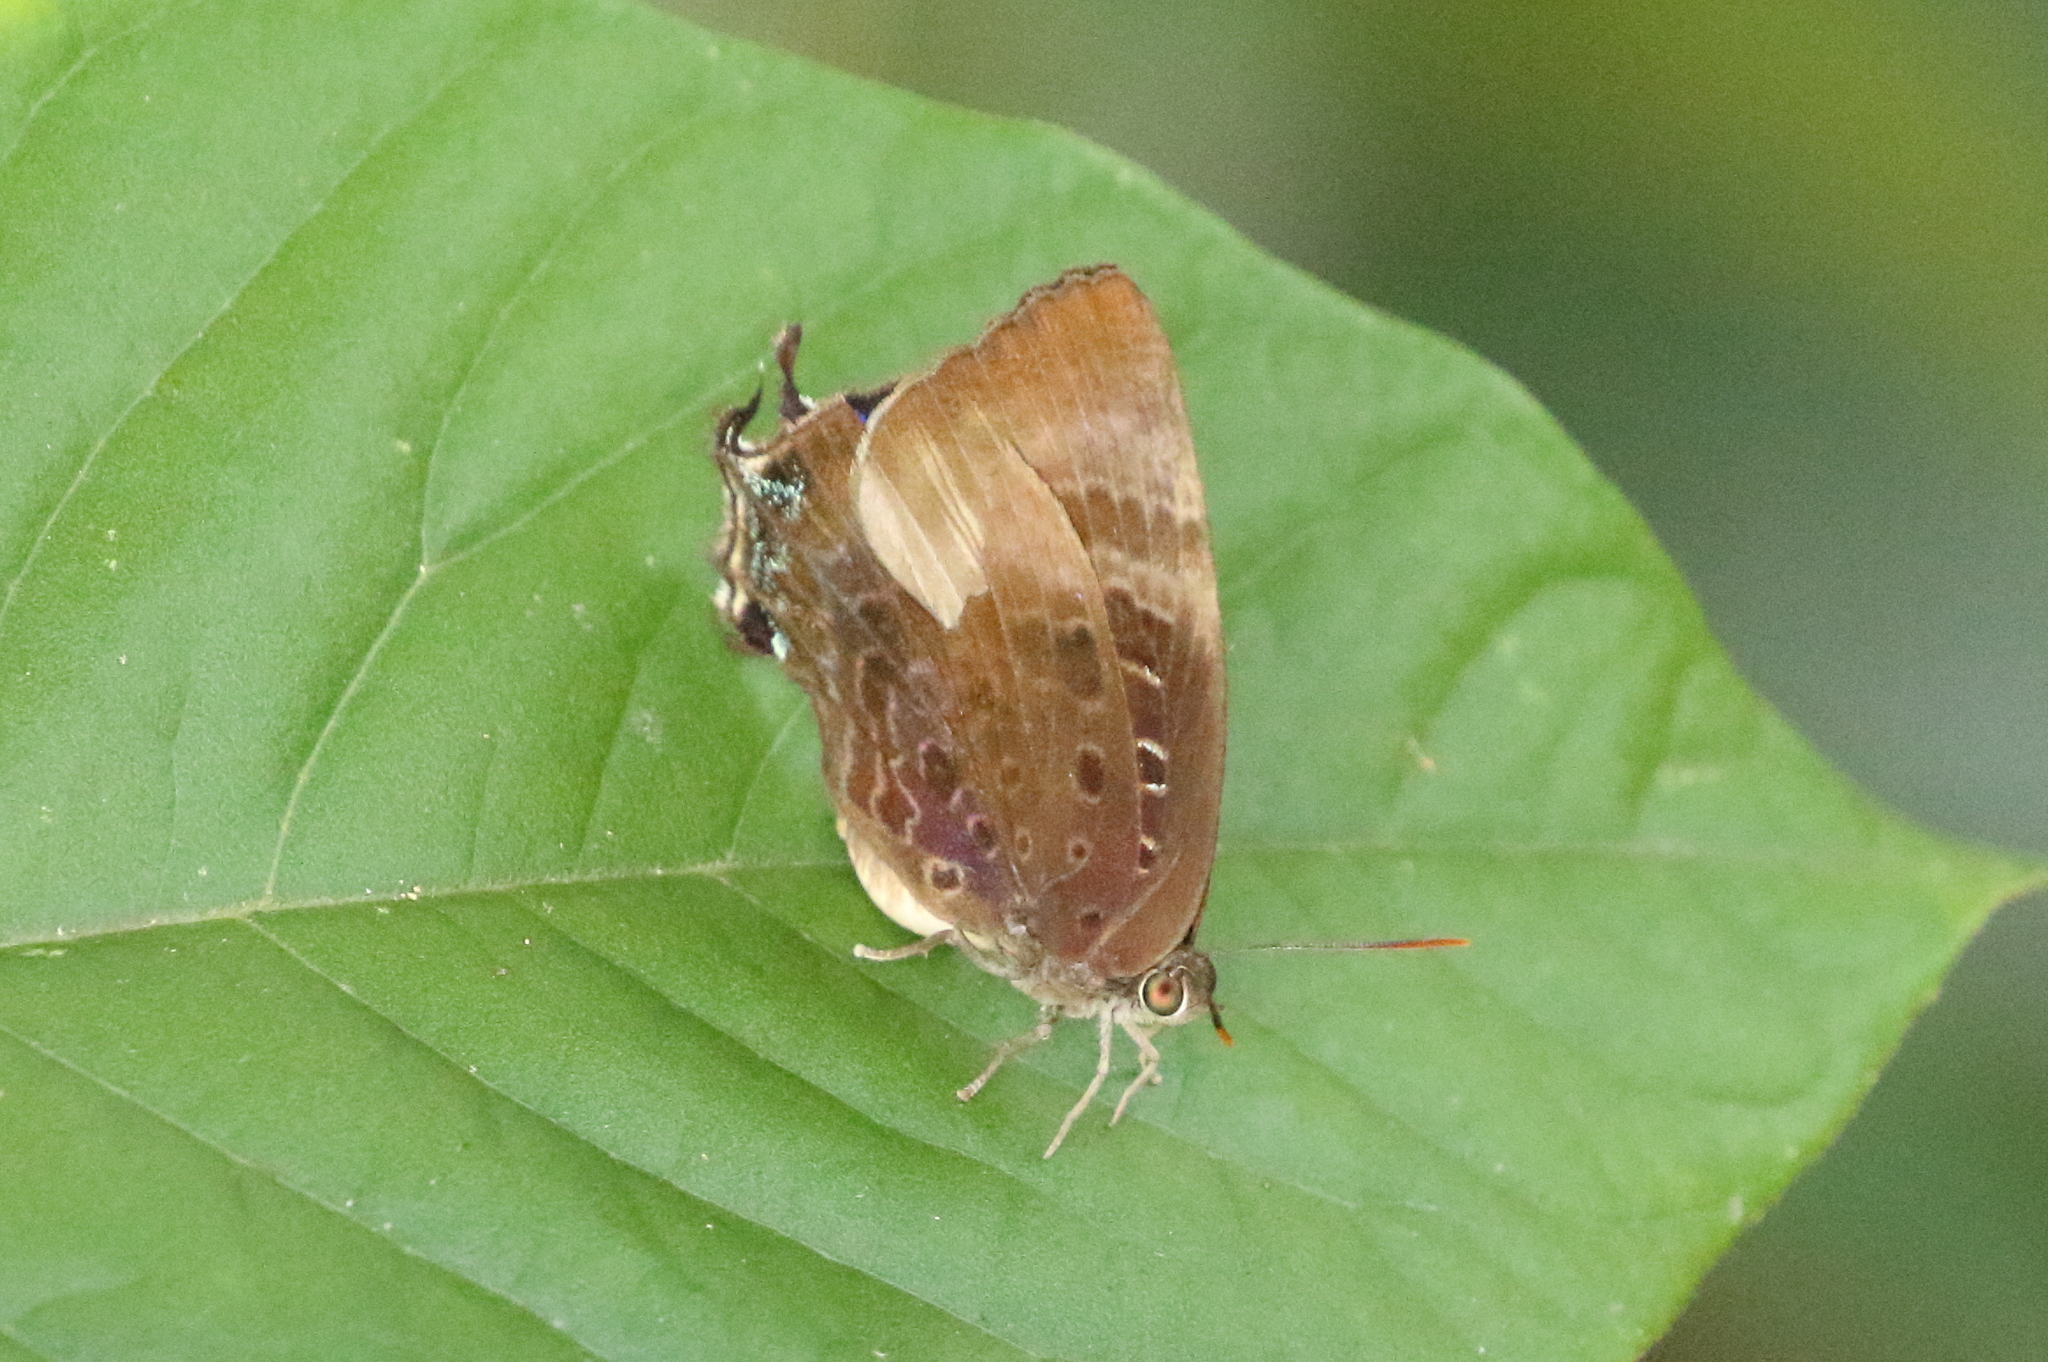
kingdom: Animalia
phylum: Arthropoda
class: Insecta
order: Lepidoptera
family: Lycaenidae
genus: Arhopala
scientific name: Arhopala madytus
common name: Bright oak-blue
